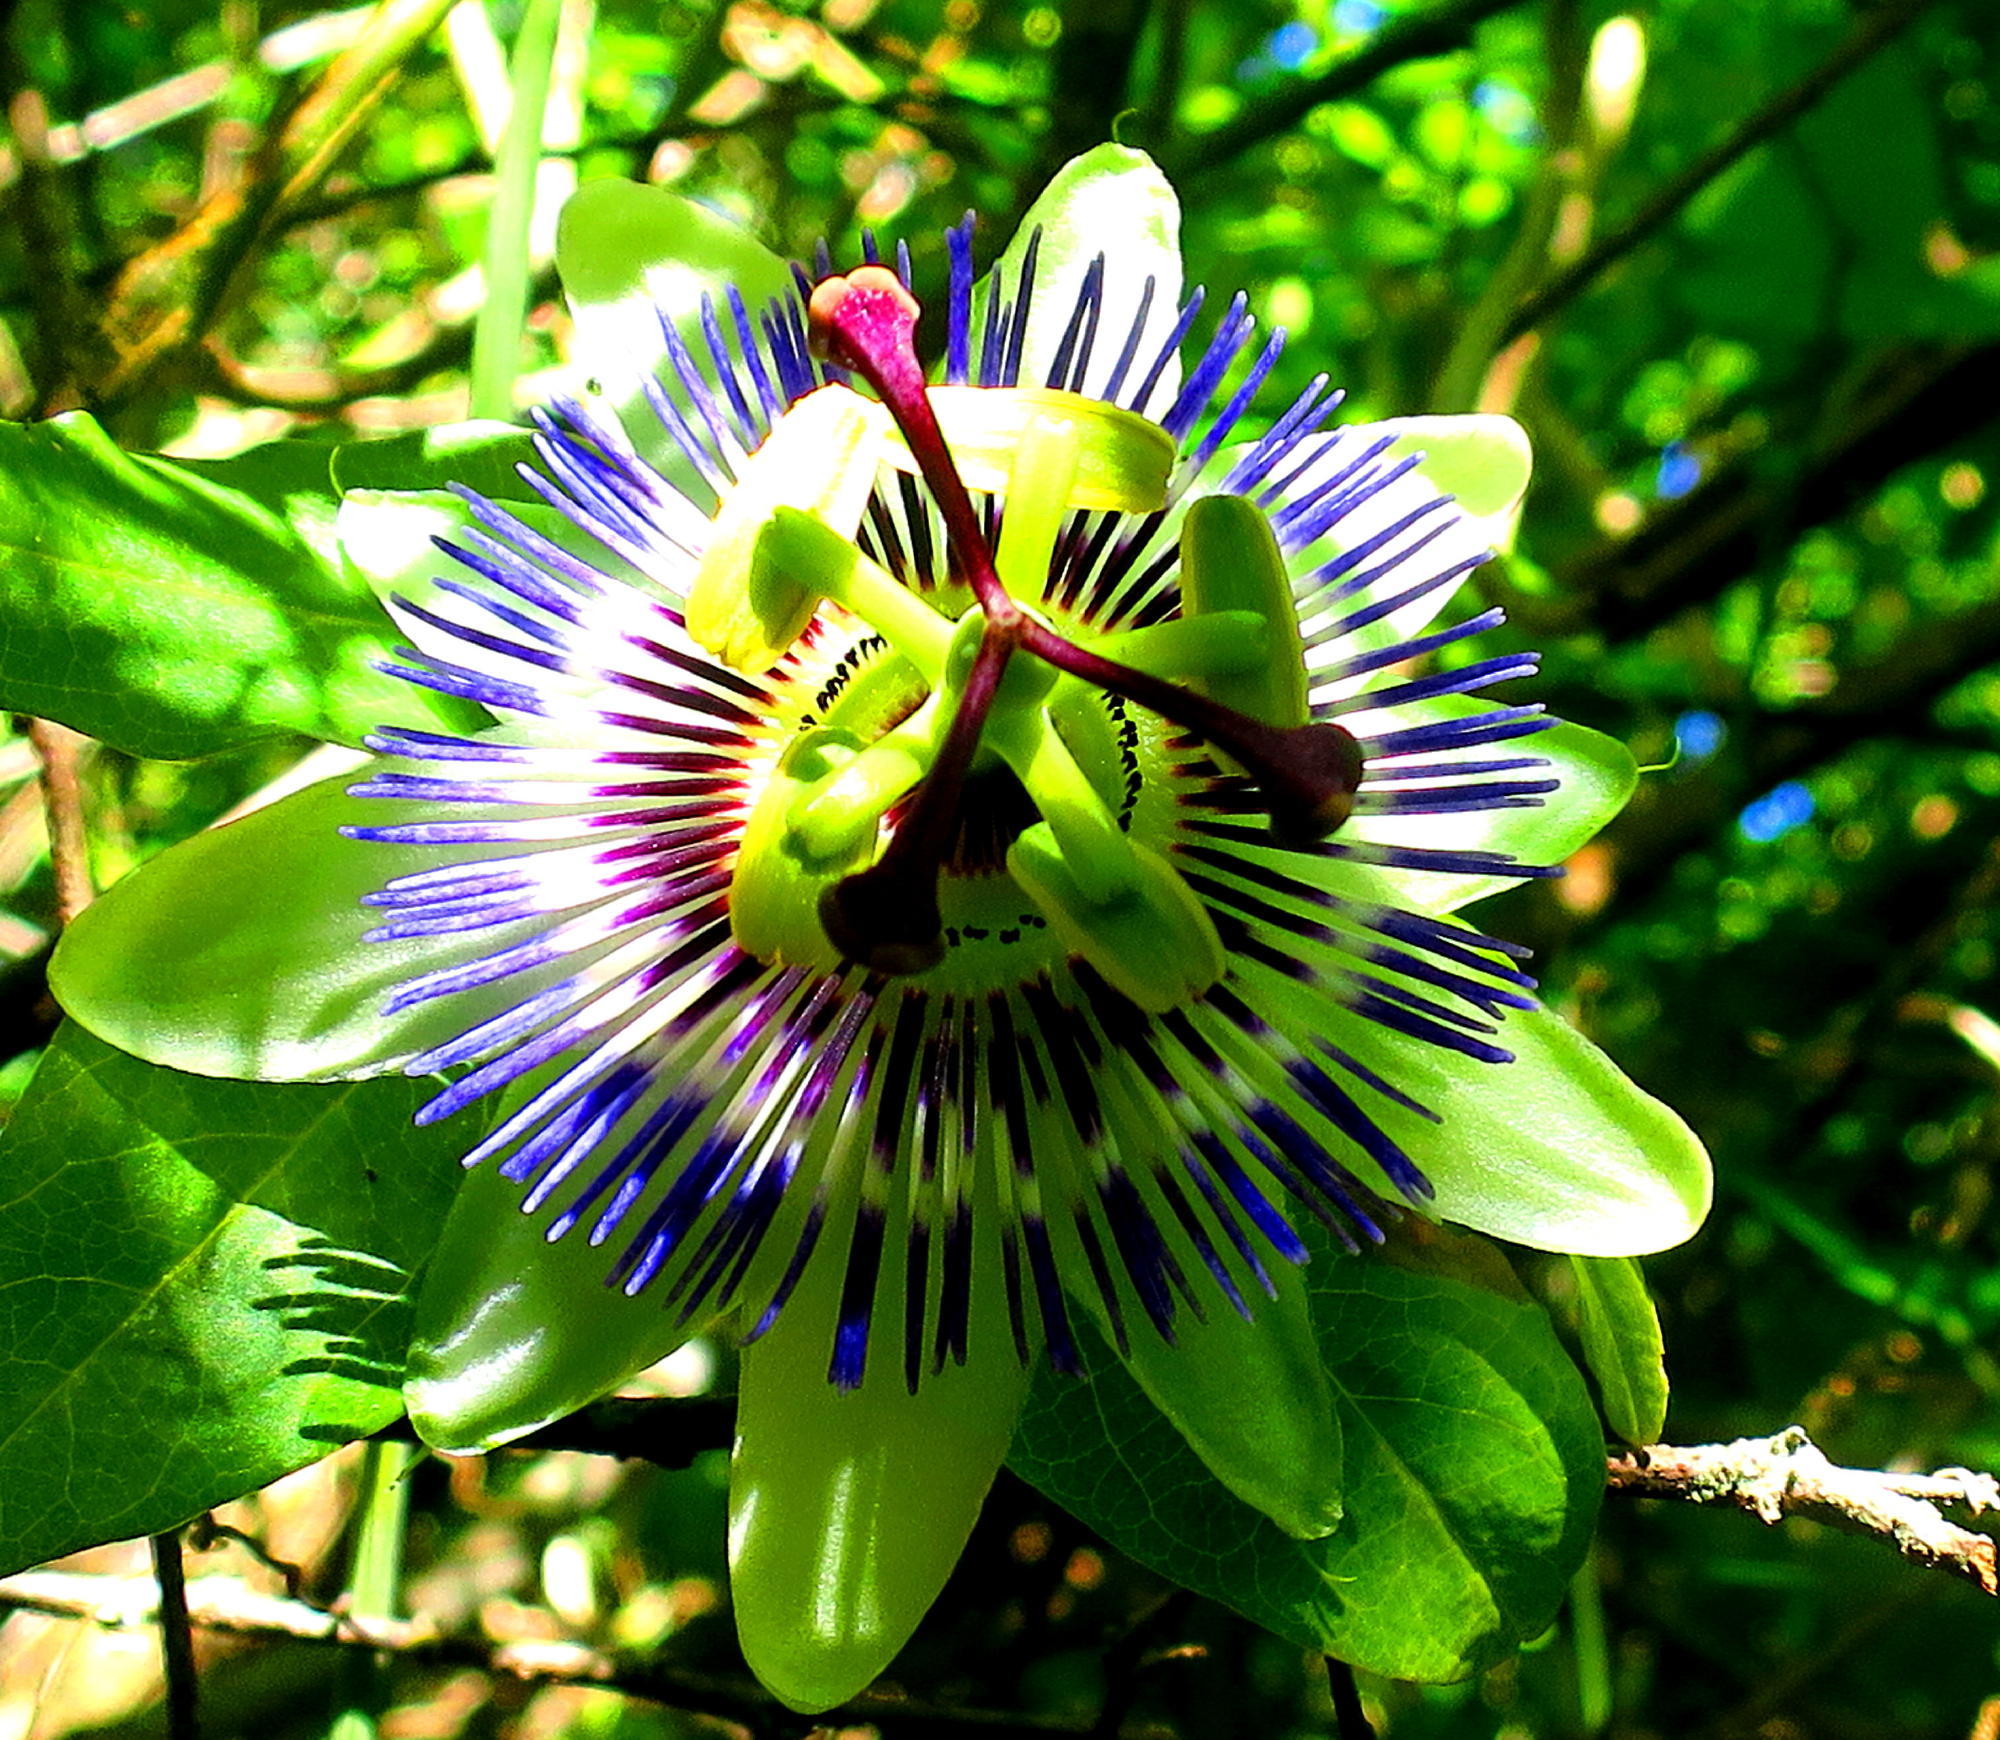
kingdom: Plantae
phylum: Tracheophyta
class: Magnoliopsida
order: Malpighiales
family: Passifloraceae
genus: Passiflora
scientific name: Passiflora caerulea
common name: Blue passionflower
